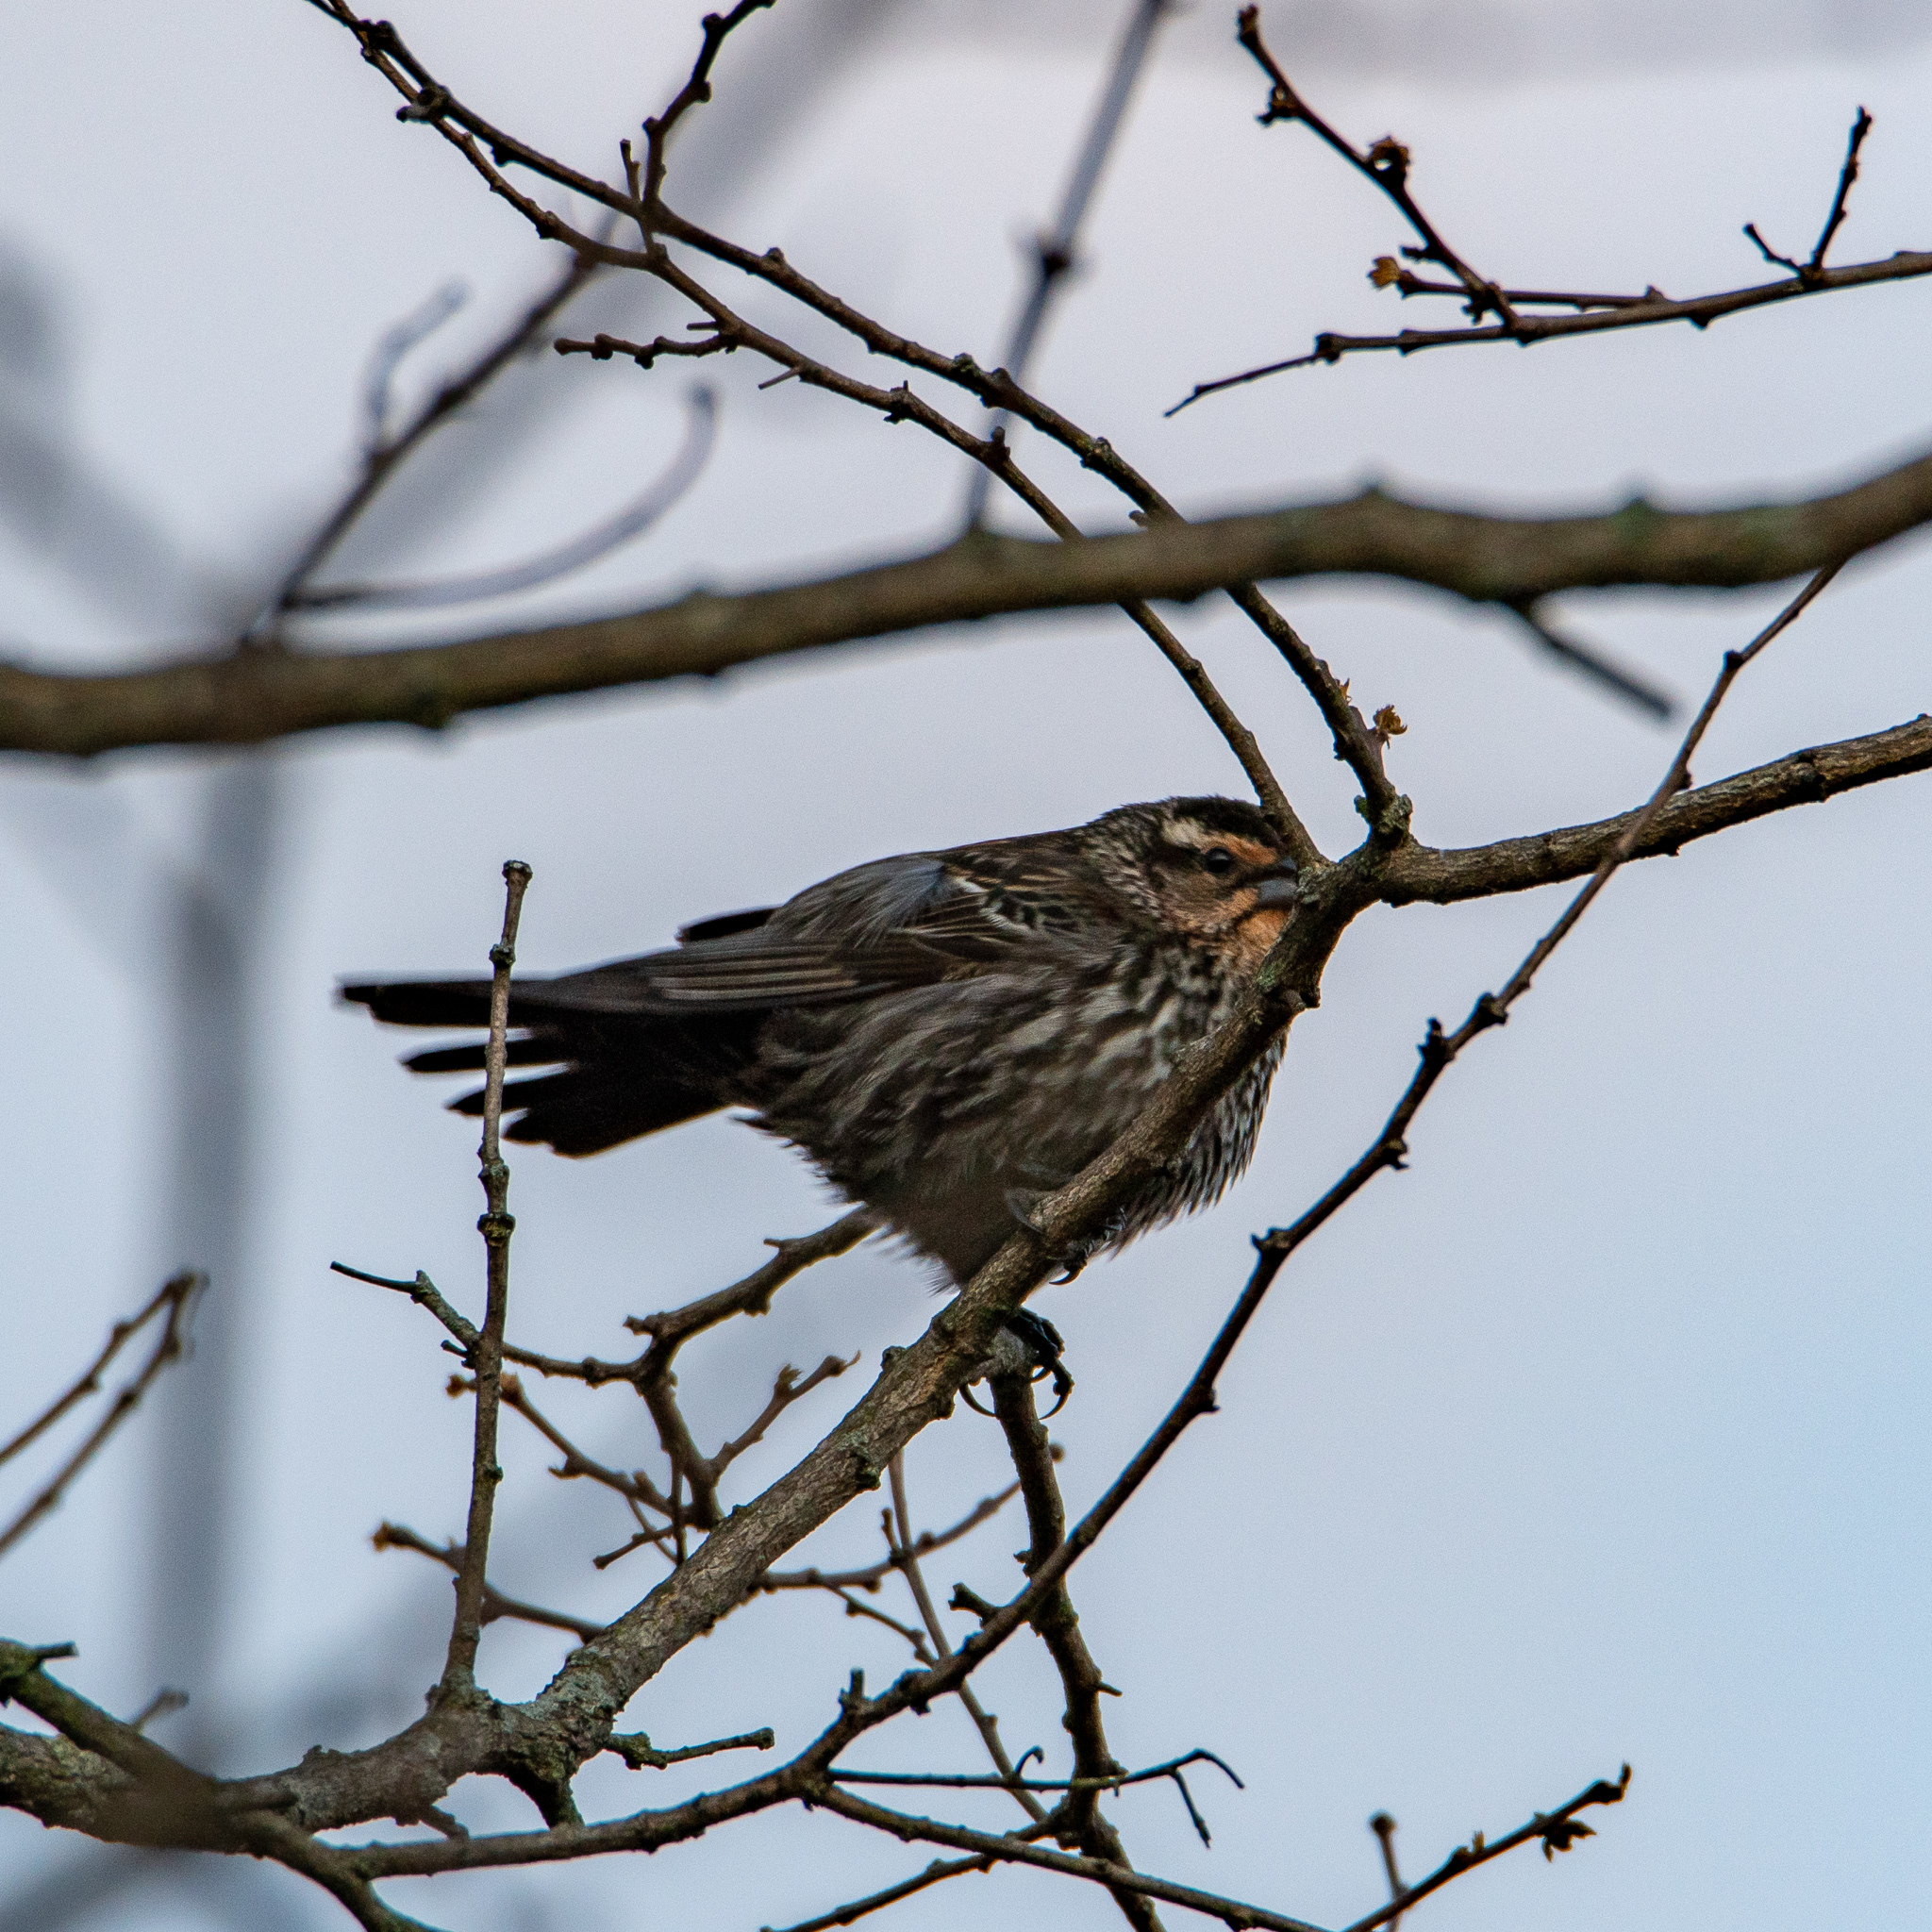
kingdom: Animalia
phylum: Chordata
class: Aves
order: Passeriformes
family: Icteridae
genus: Agelaius
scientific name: Agelaius phoeniceus
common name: Red-winged blackbird
